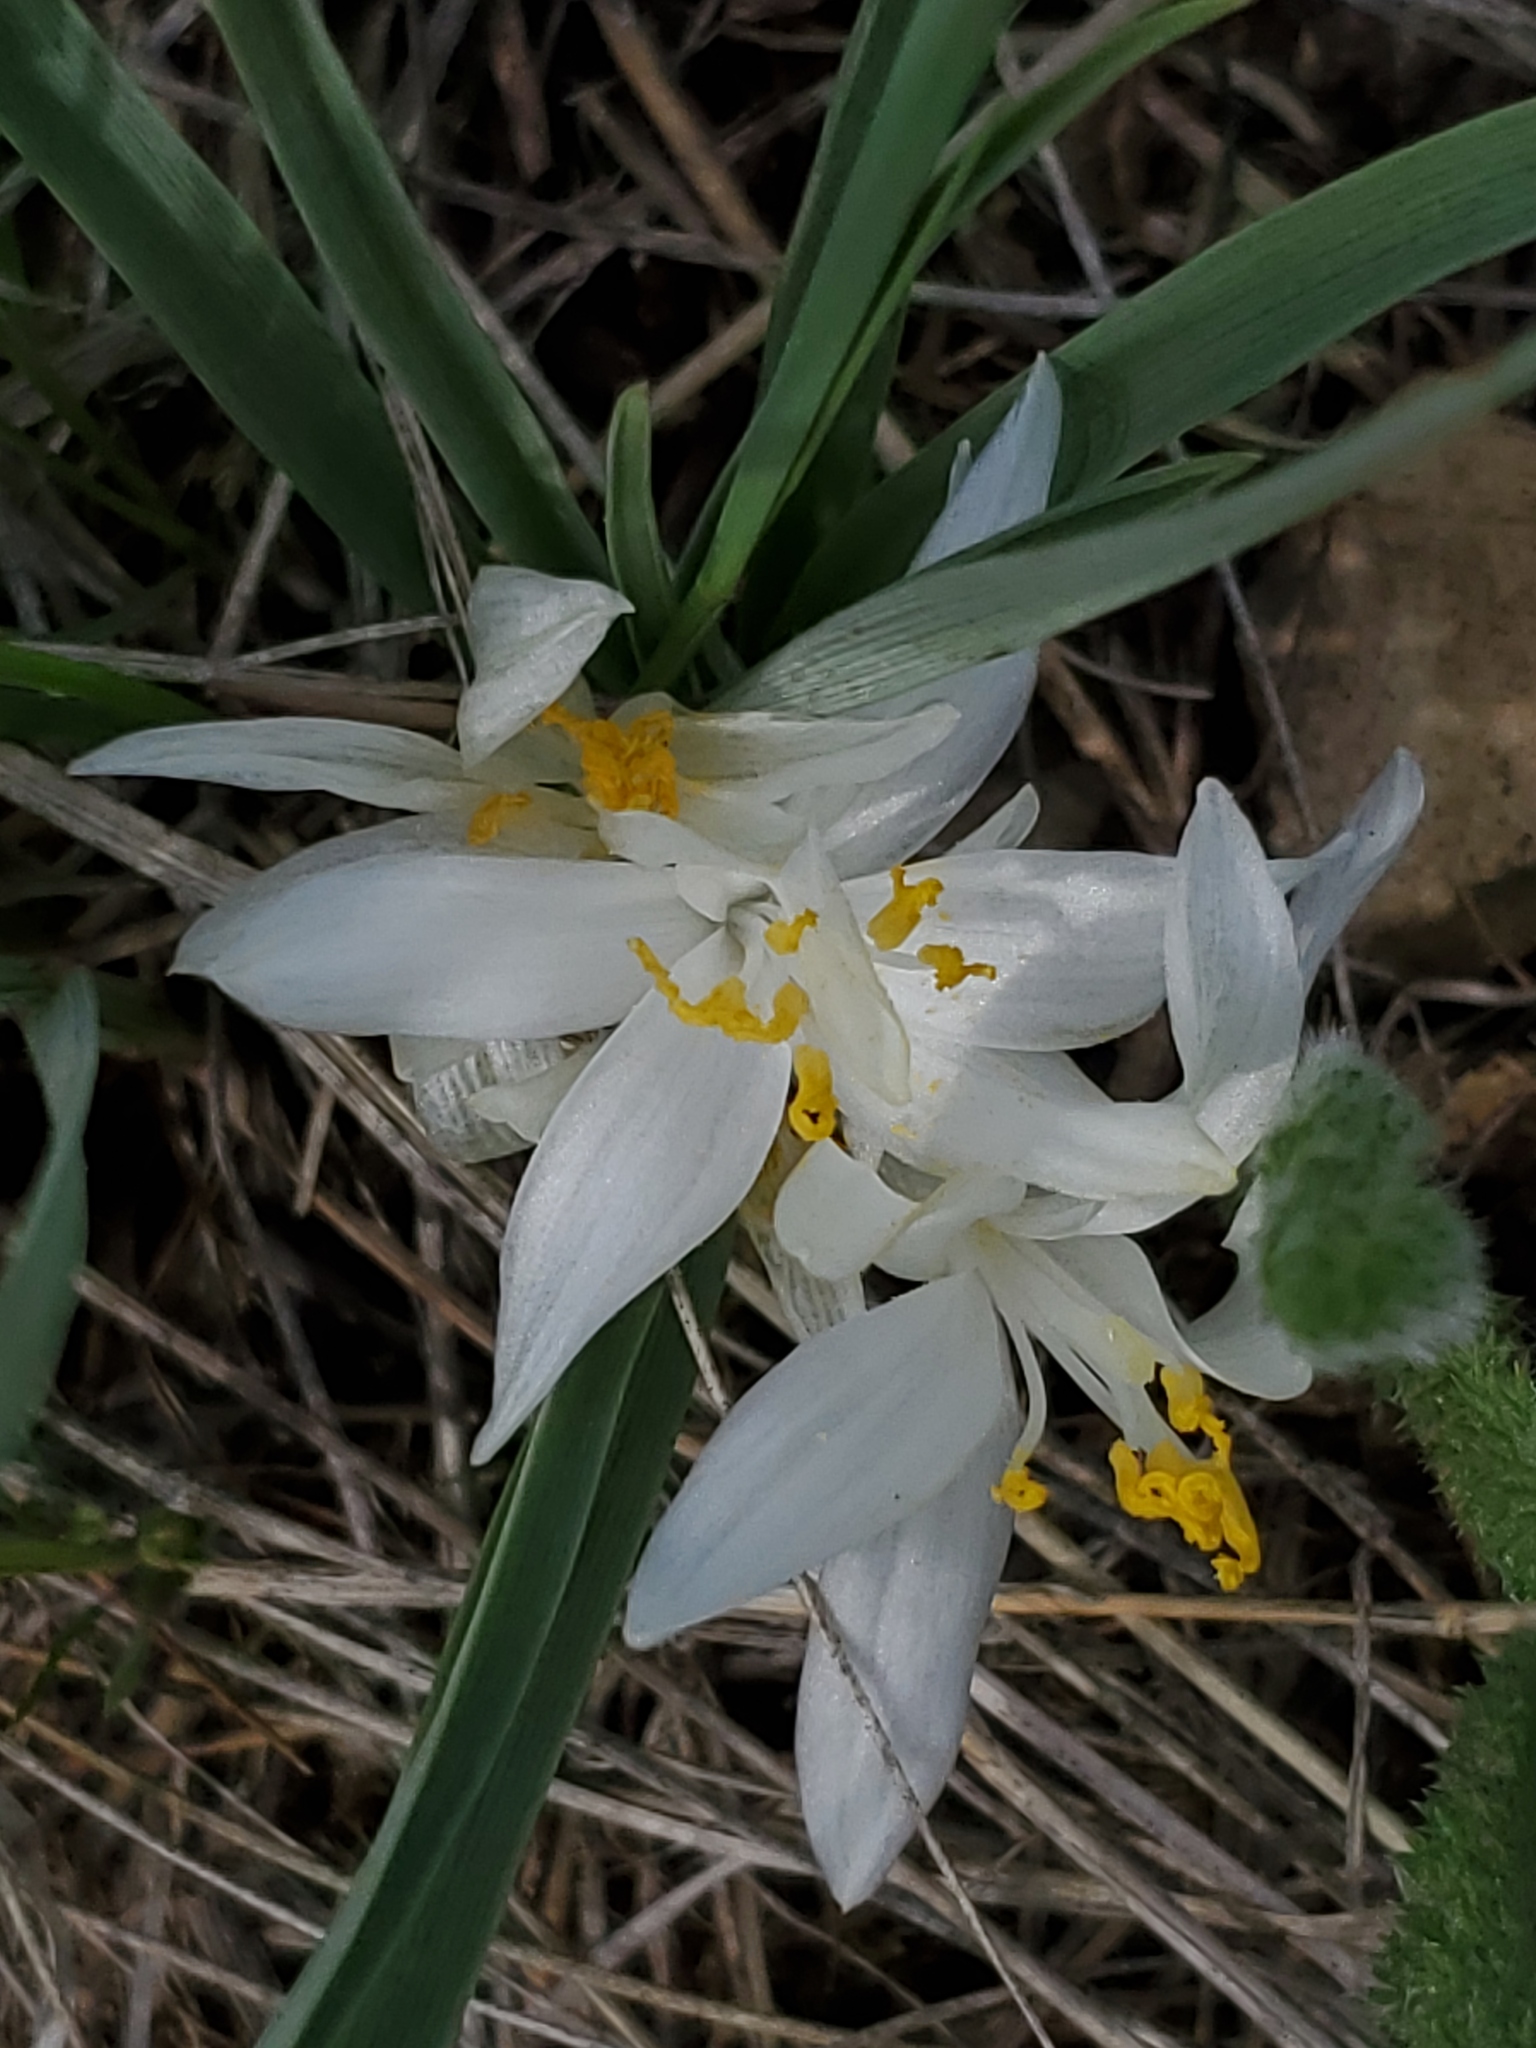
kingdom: Plantae
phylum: Tracheophyta
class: Liliopsida
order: Asparagales
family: Asparagaceae
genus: Leucocrinum
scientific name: Leucocrinum montanum
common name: Mountain-lily
